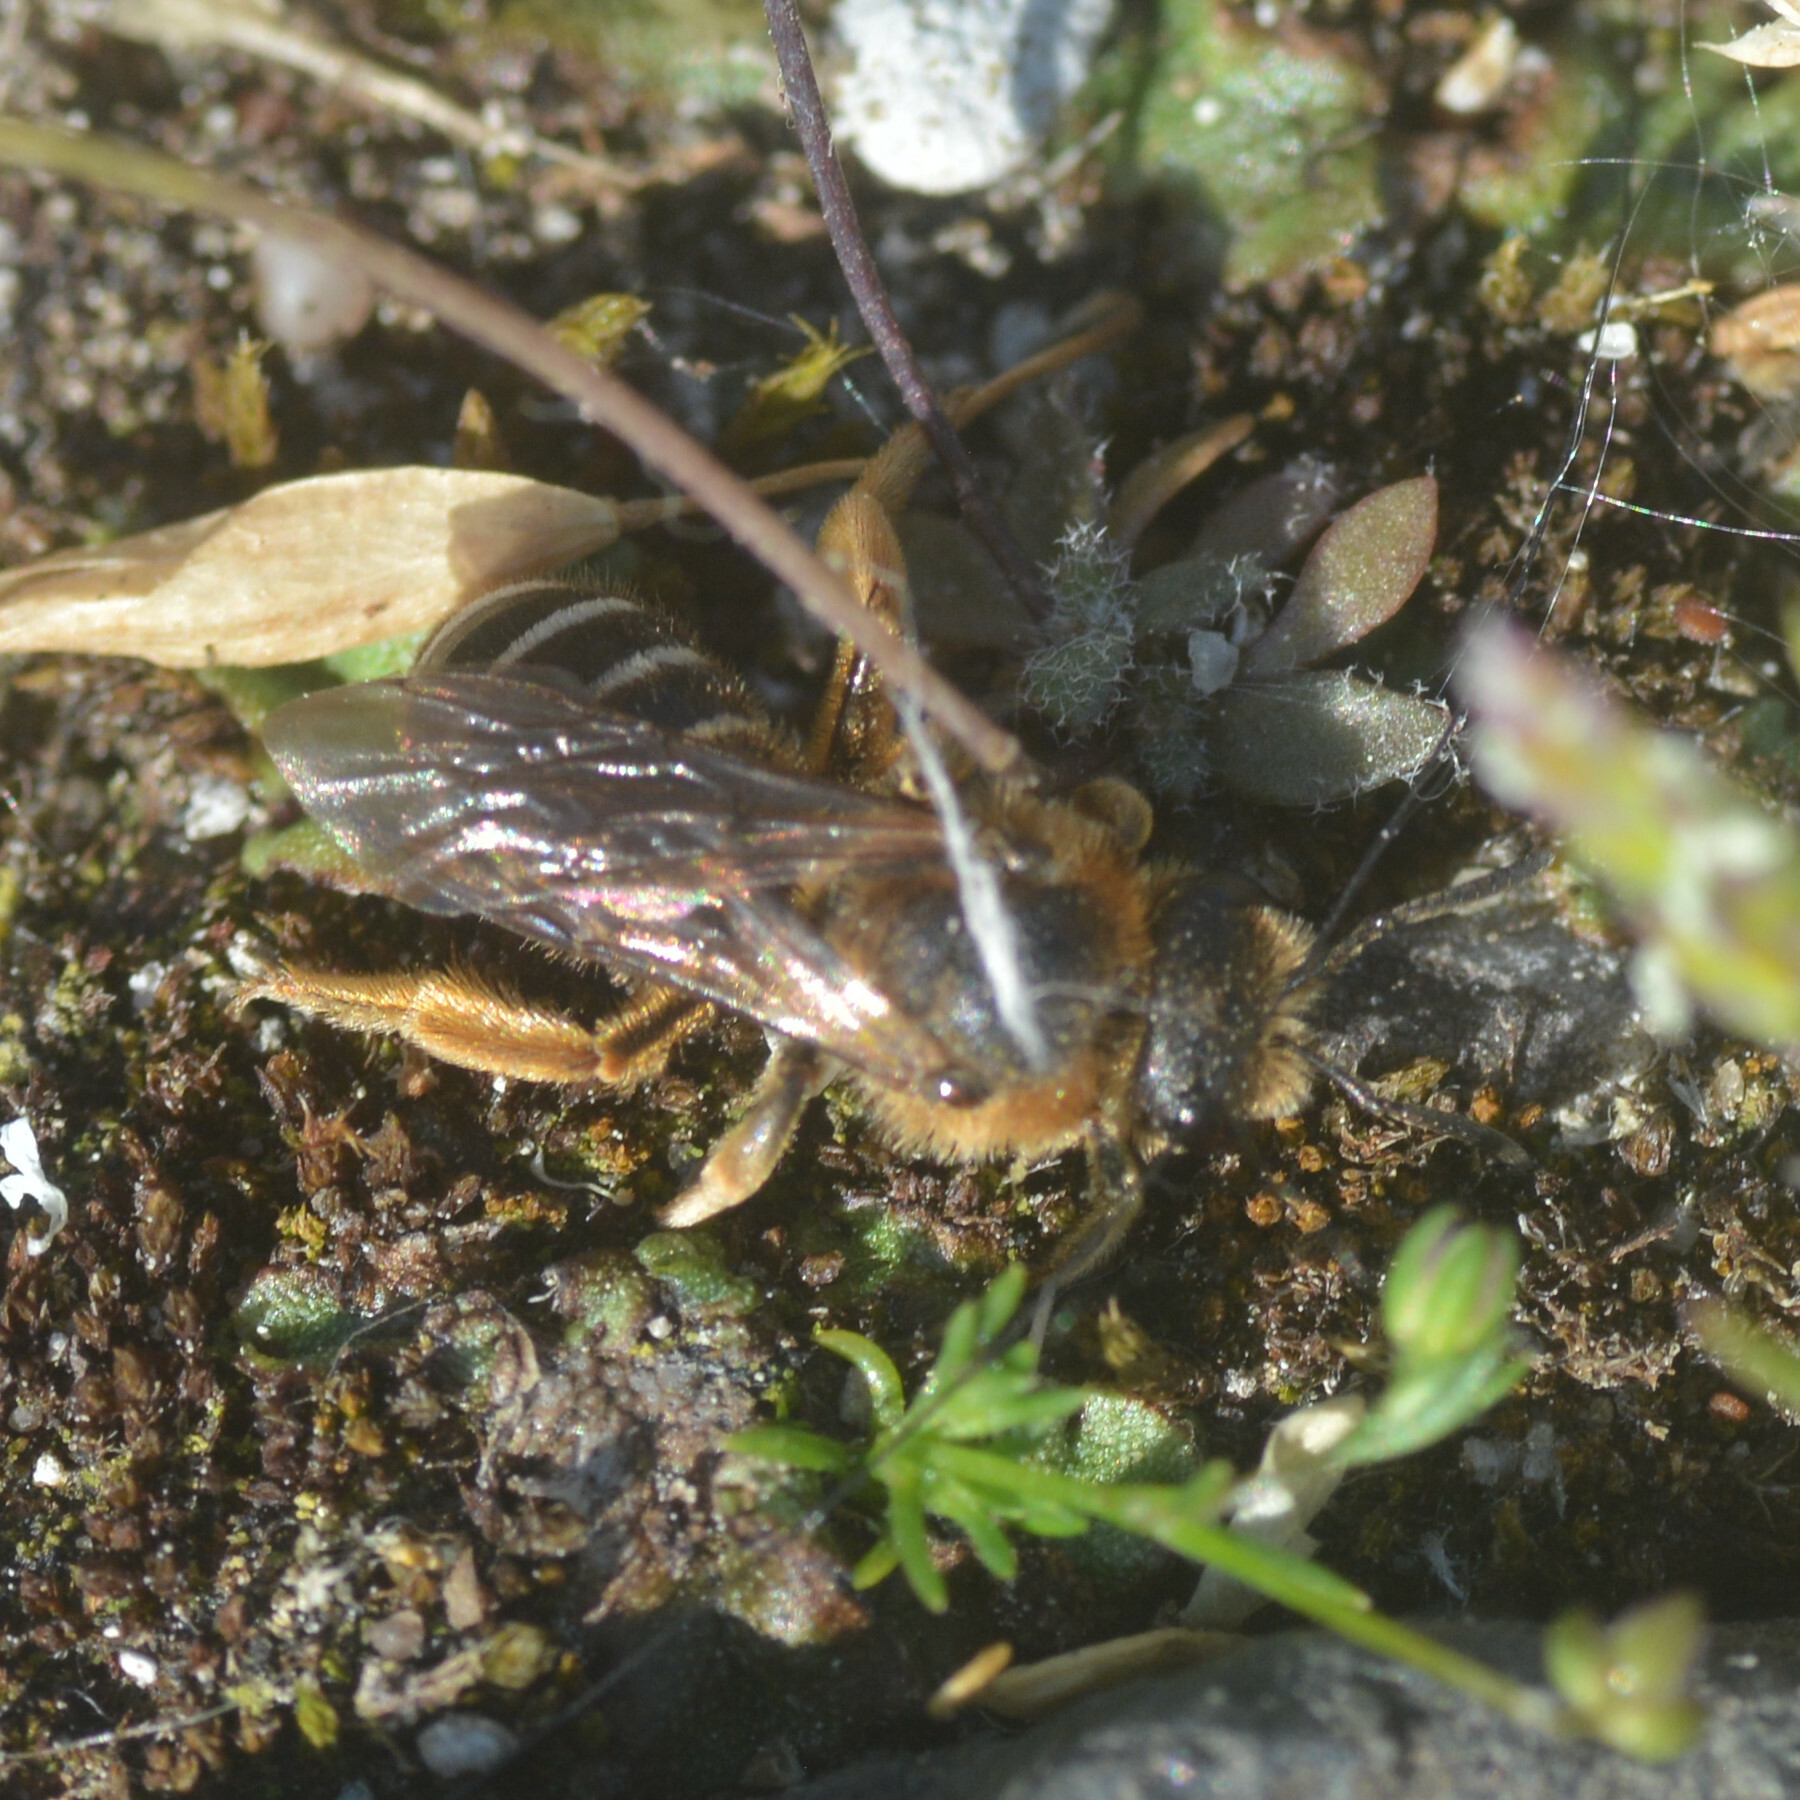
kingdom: Animalia
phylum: Arthropoda
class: Insecta
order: Hymenoptera
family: Halictidae
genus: Halictus
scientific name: Halictus rubicundus
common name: Orange-legged furrow bee
